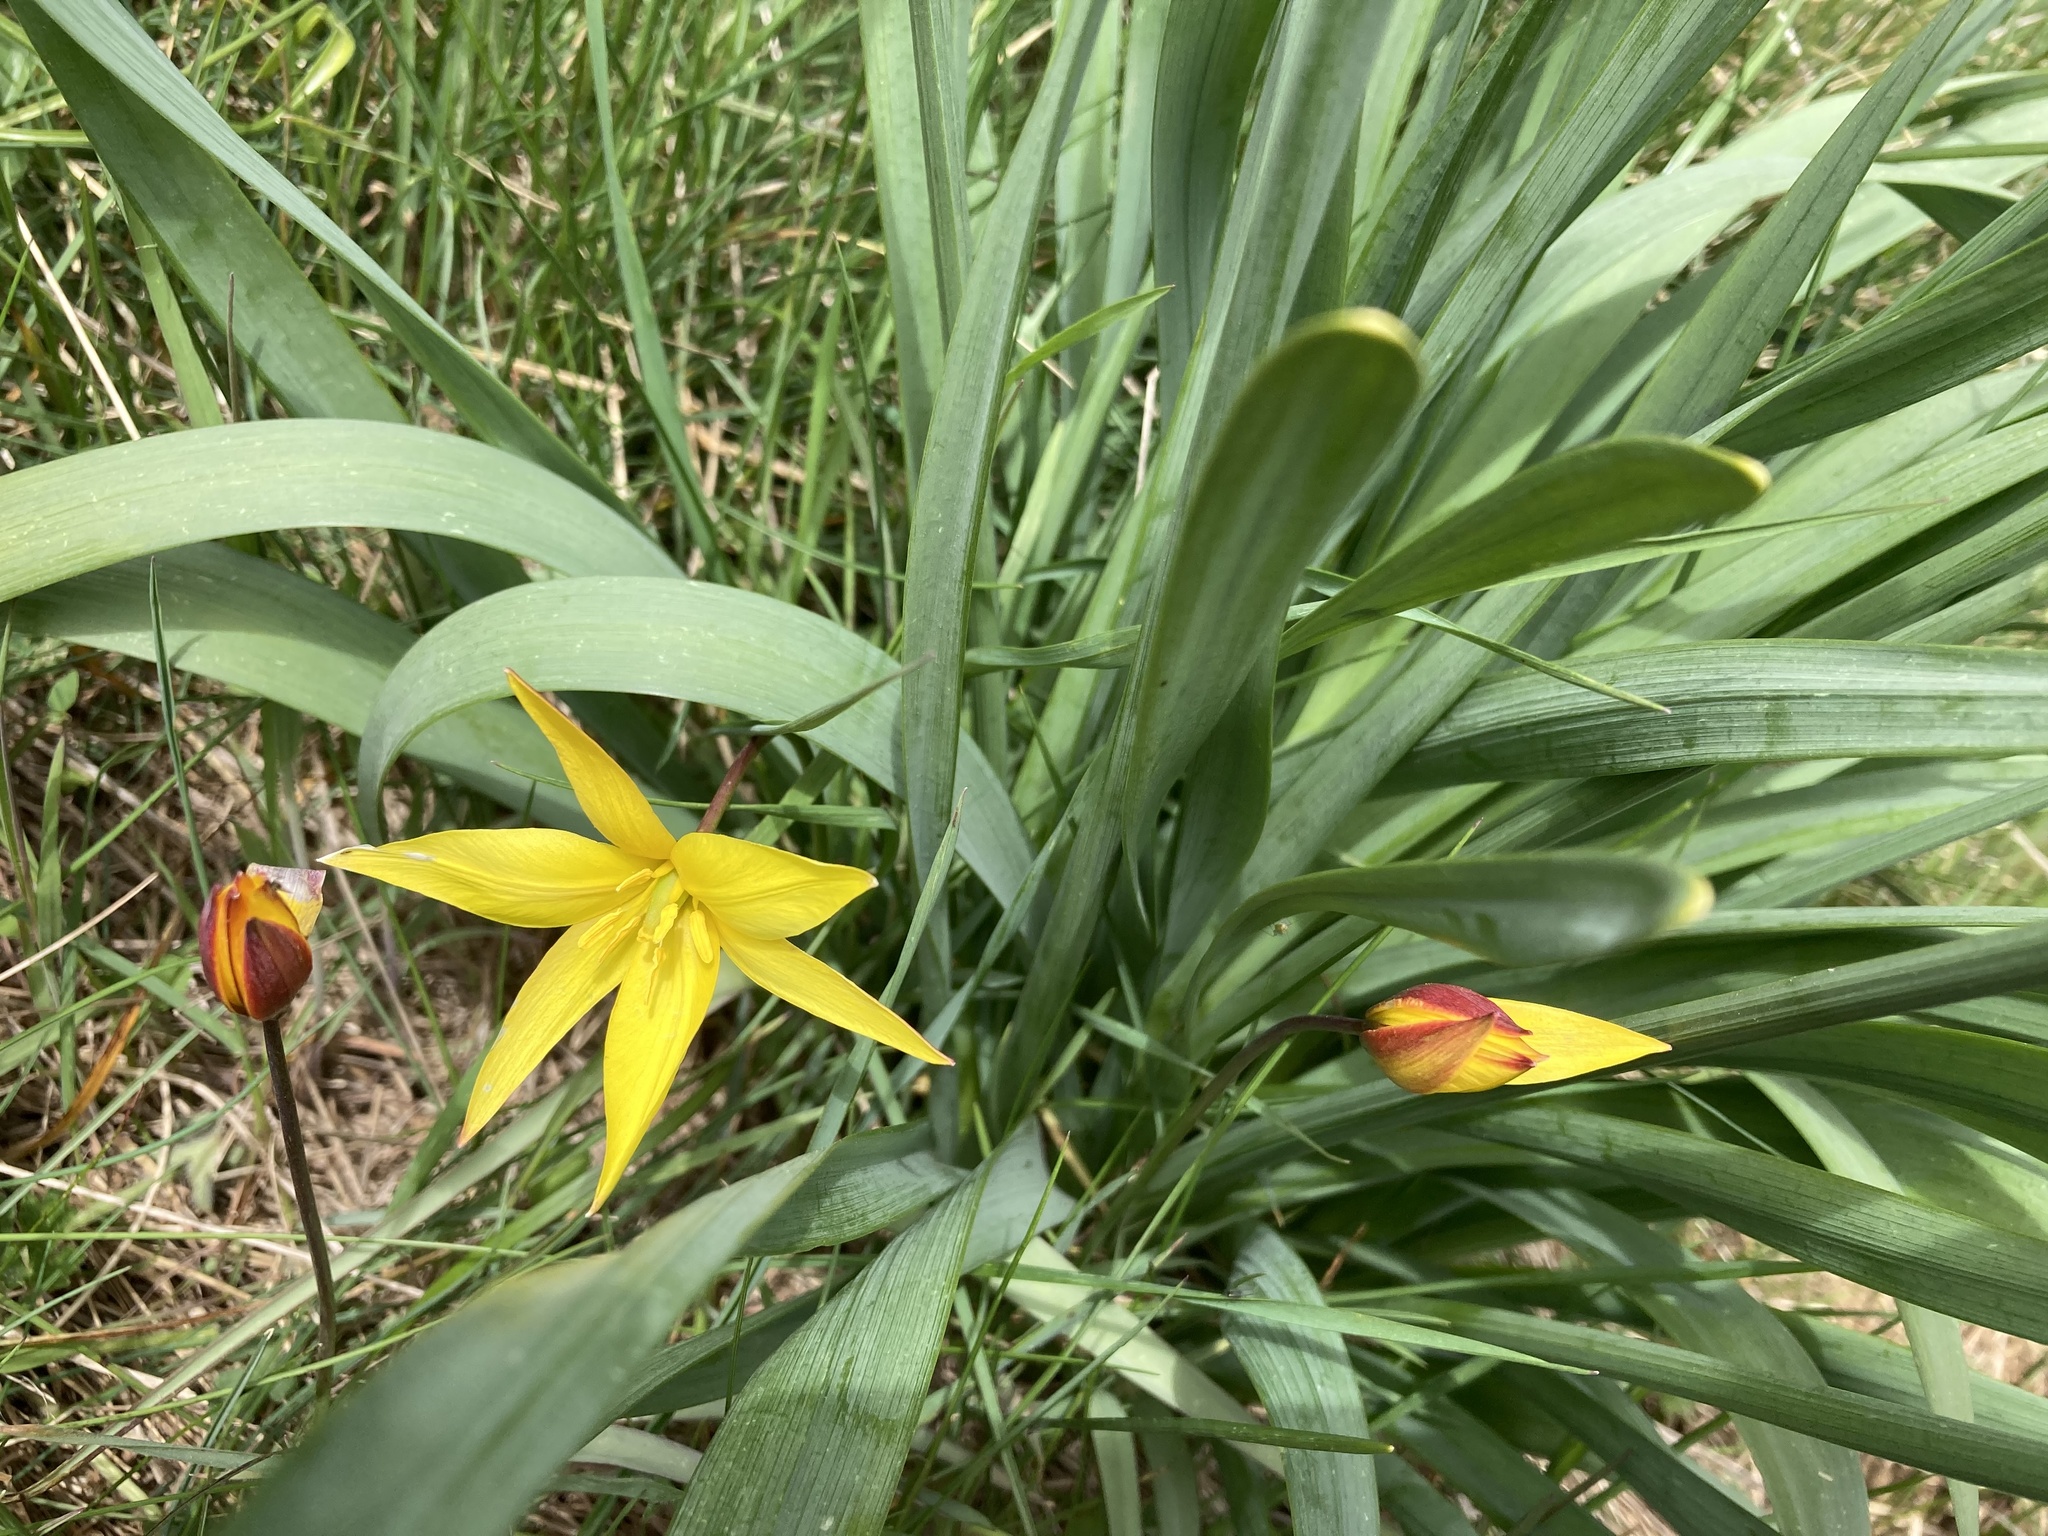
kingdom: Plantae
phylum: Tracheophyta
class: Liliopsida
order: Liliales
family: Liliaceae
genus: Tulipa
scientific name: Tulipa sylvestris
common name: Wild tulip
